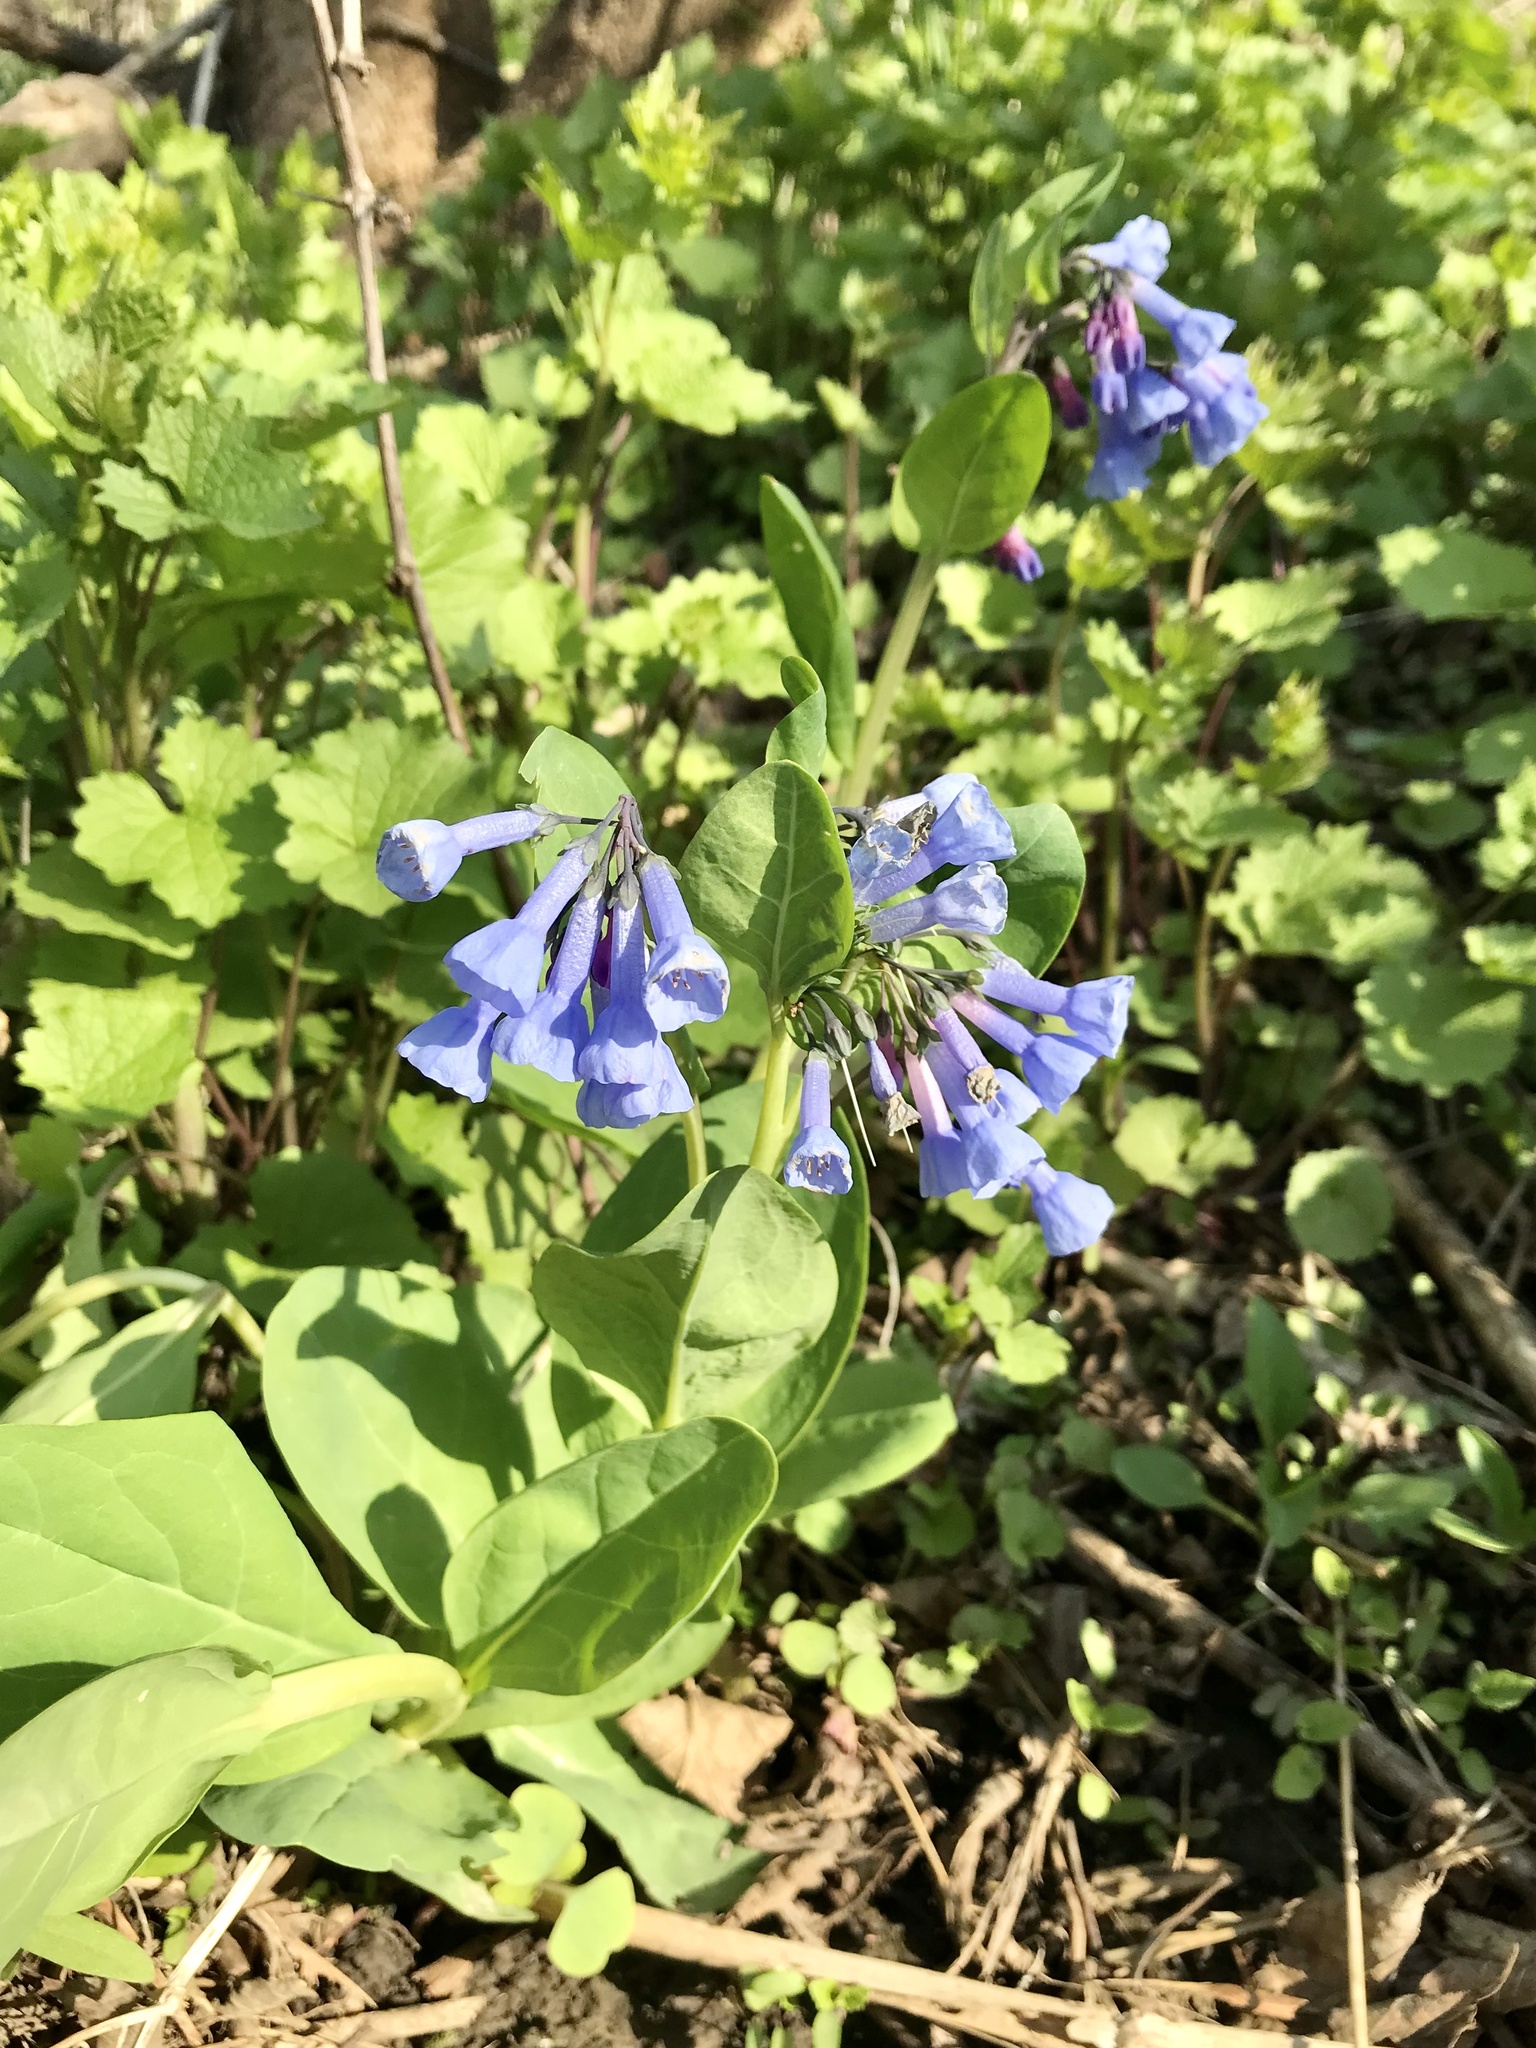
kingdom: Plantae
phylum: Tracheophyta
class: Magnoliopsida
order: Boraginales
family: Boraginaceae
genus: Mertensia
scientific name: Mertensia virginica
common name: Virginia bluebells
